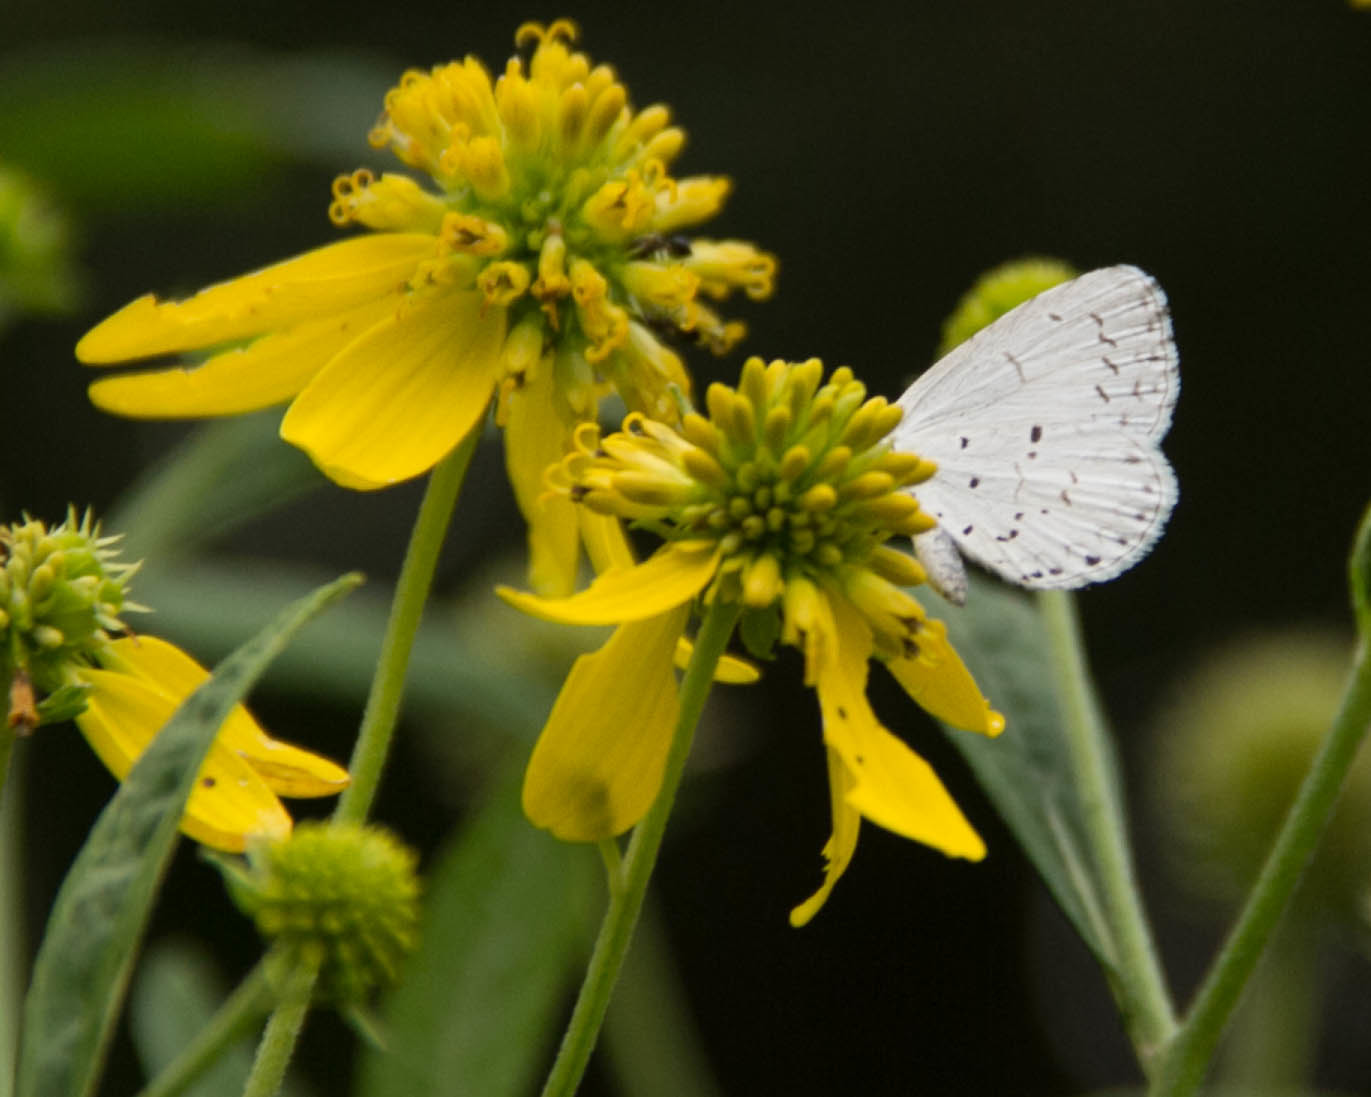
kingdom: Animalia
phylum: Arthropoda
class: Insecta
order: Lepidoptera
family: Lycaenidae
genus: Cyaniris
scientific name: Cyaniris neglecta
